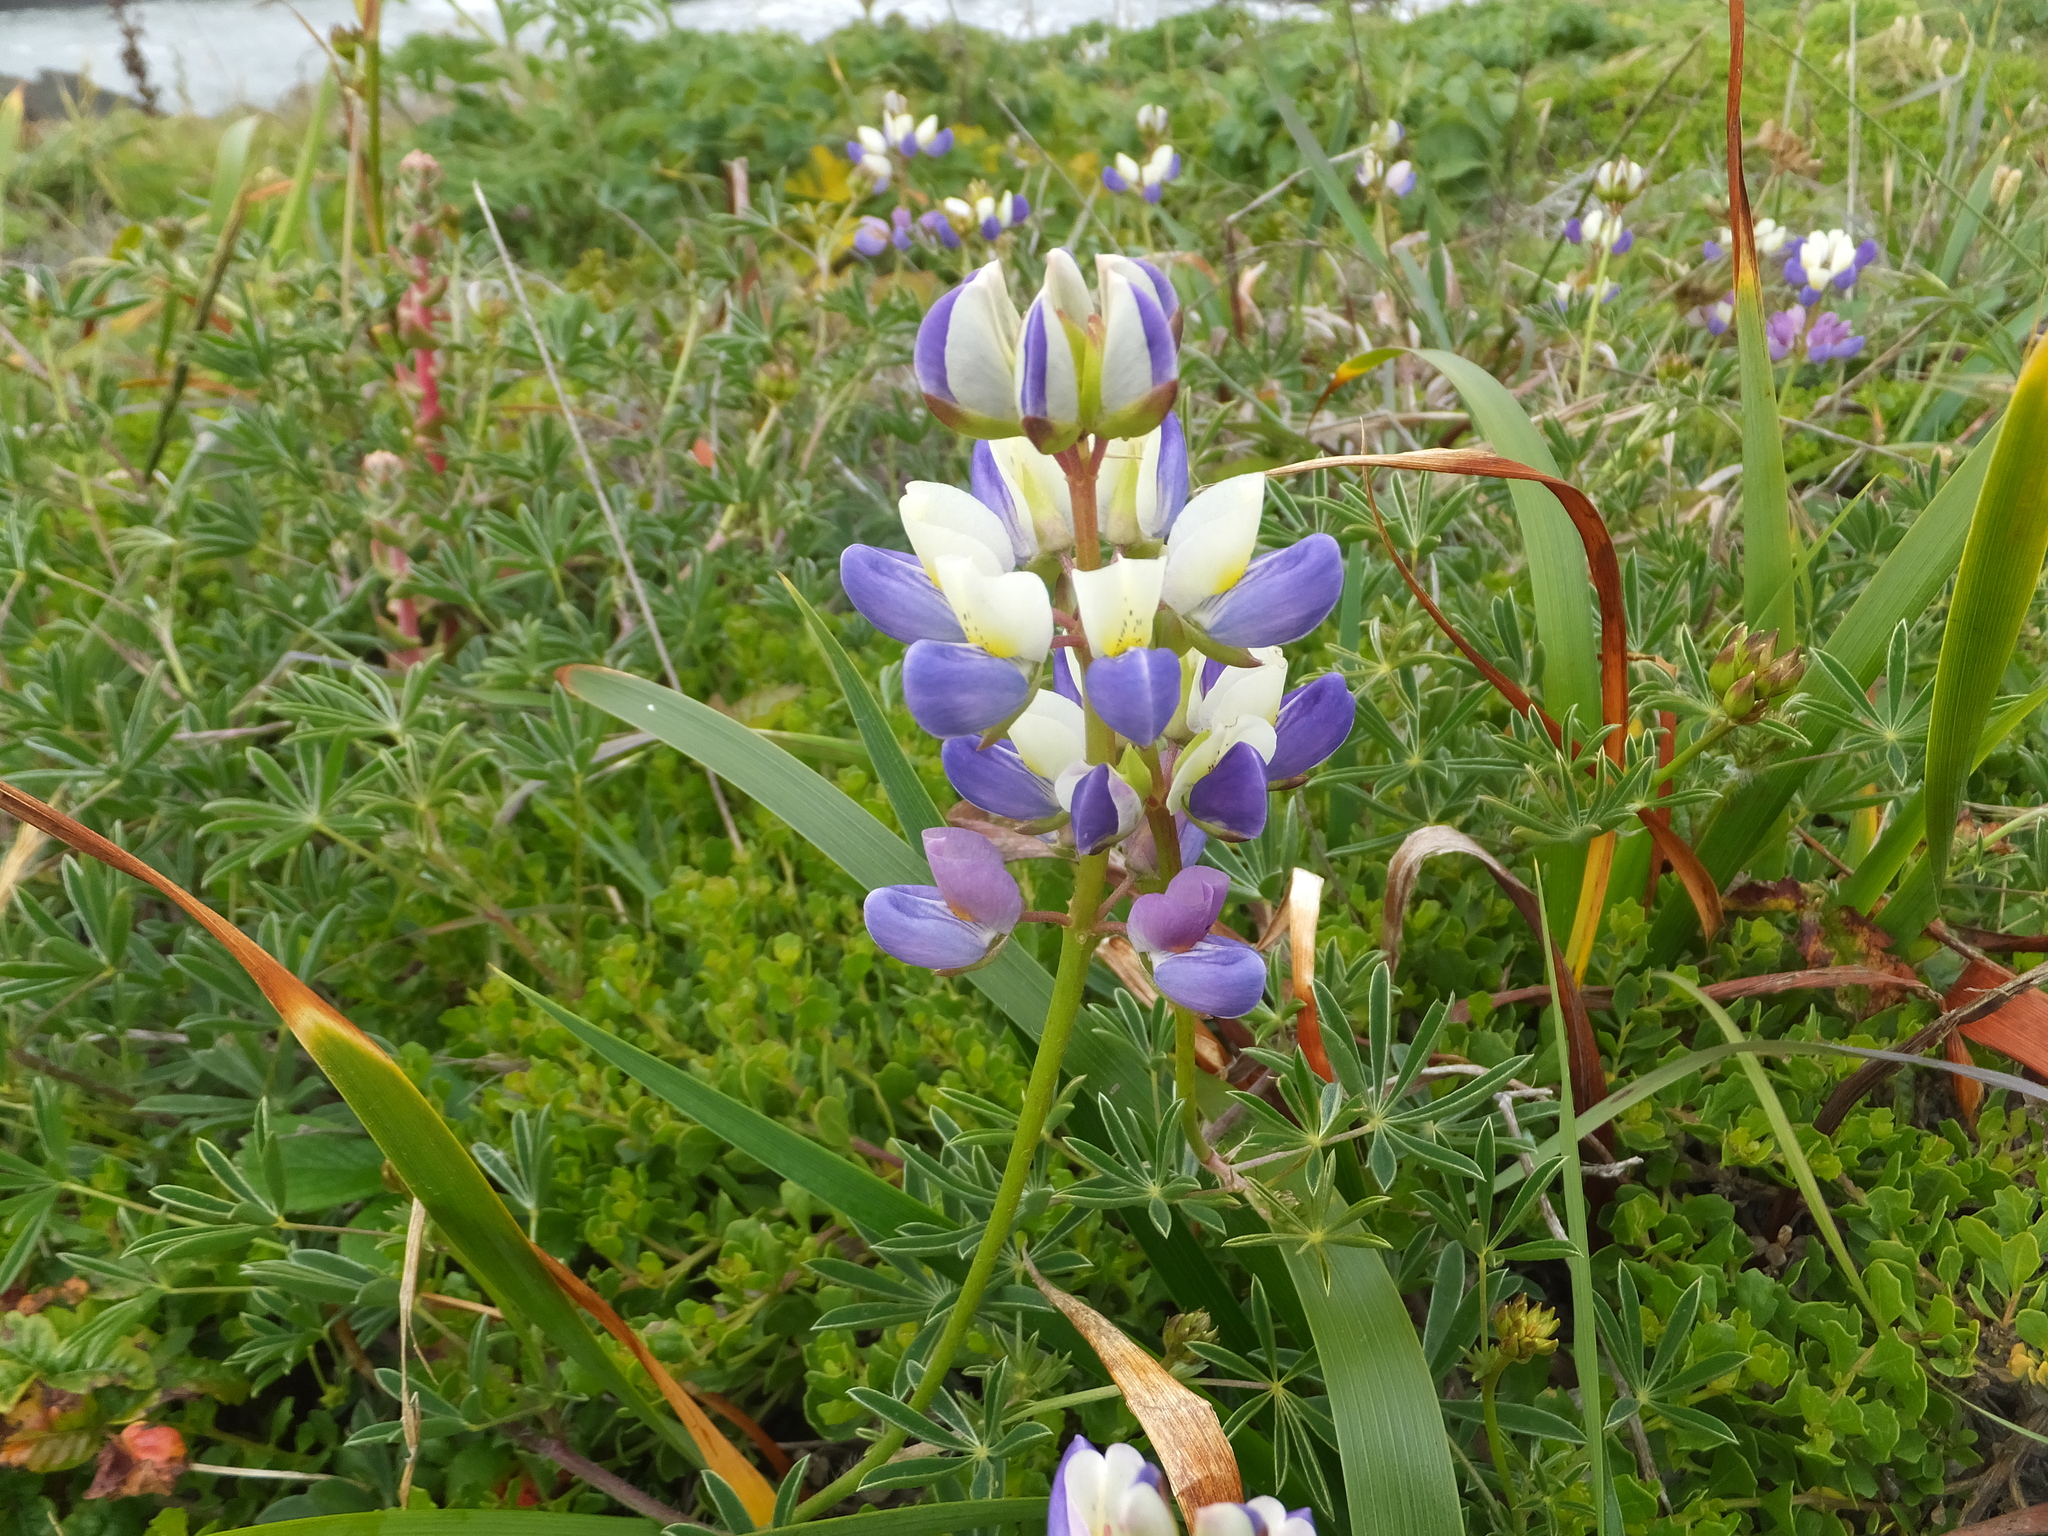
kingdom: Plantae
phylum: Tracheophyta
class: Magnoliopsida
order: Fabales
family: Fabaceae
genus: Lupinus
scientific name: Lupinus variicolor
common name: Lindley's varied lupine
